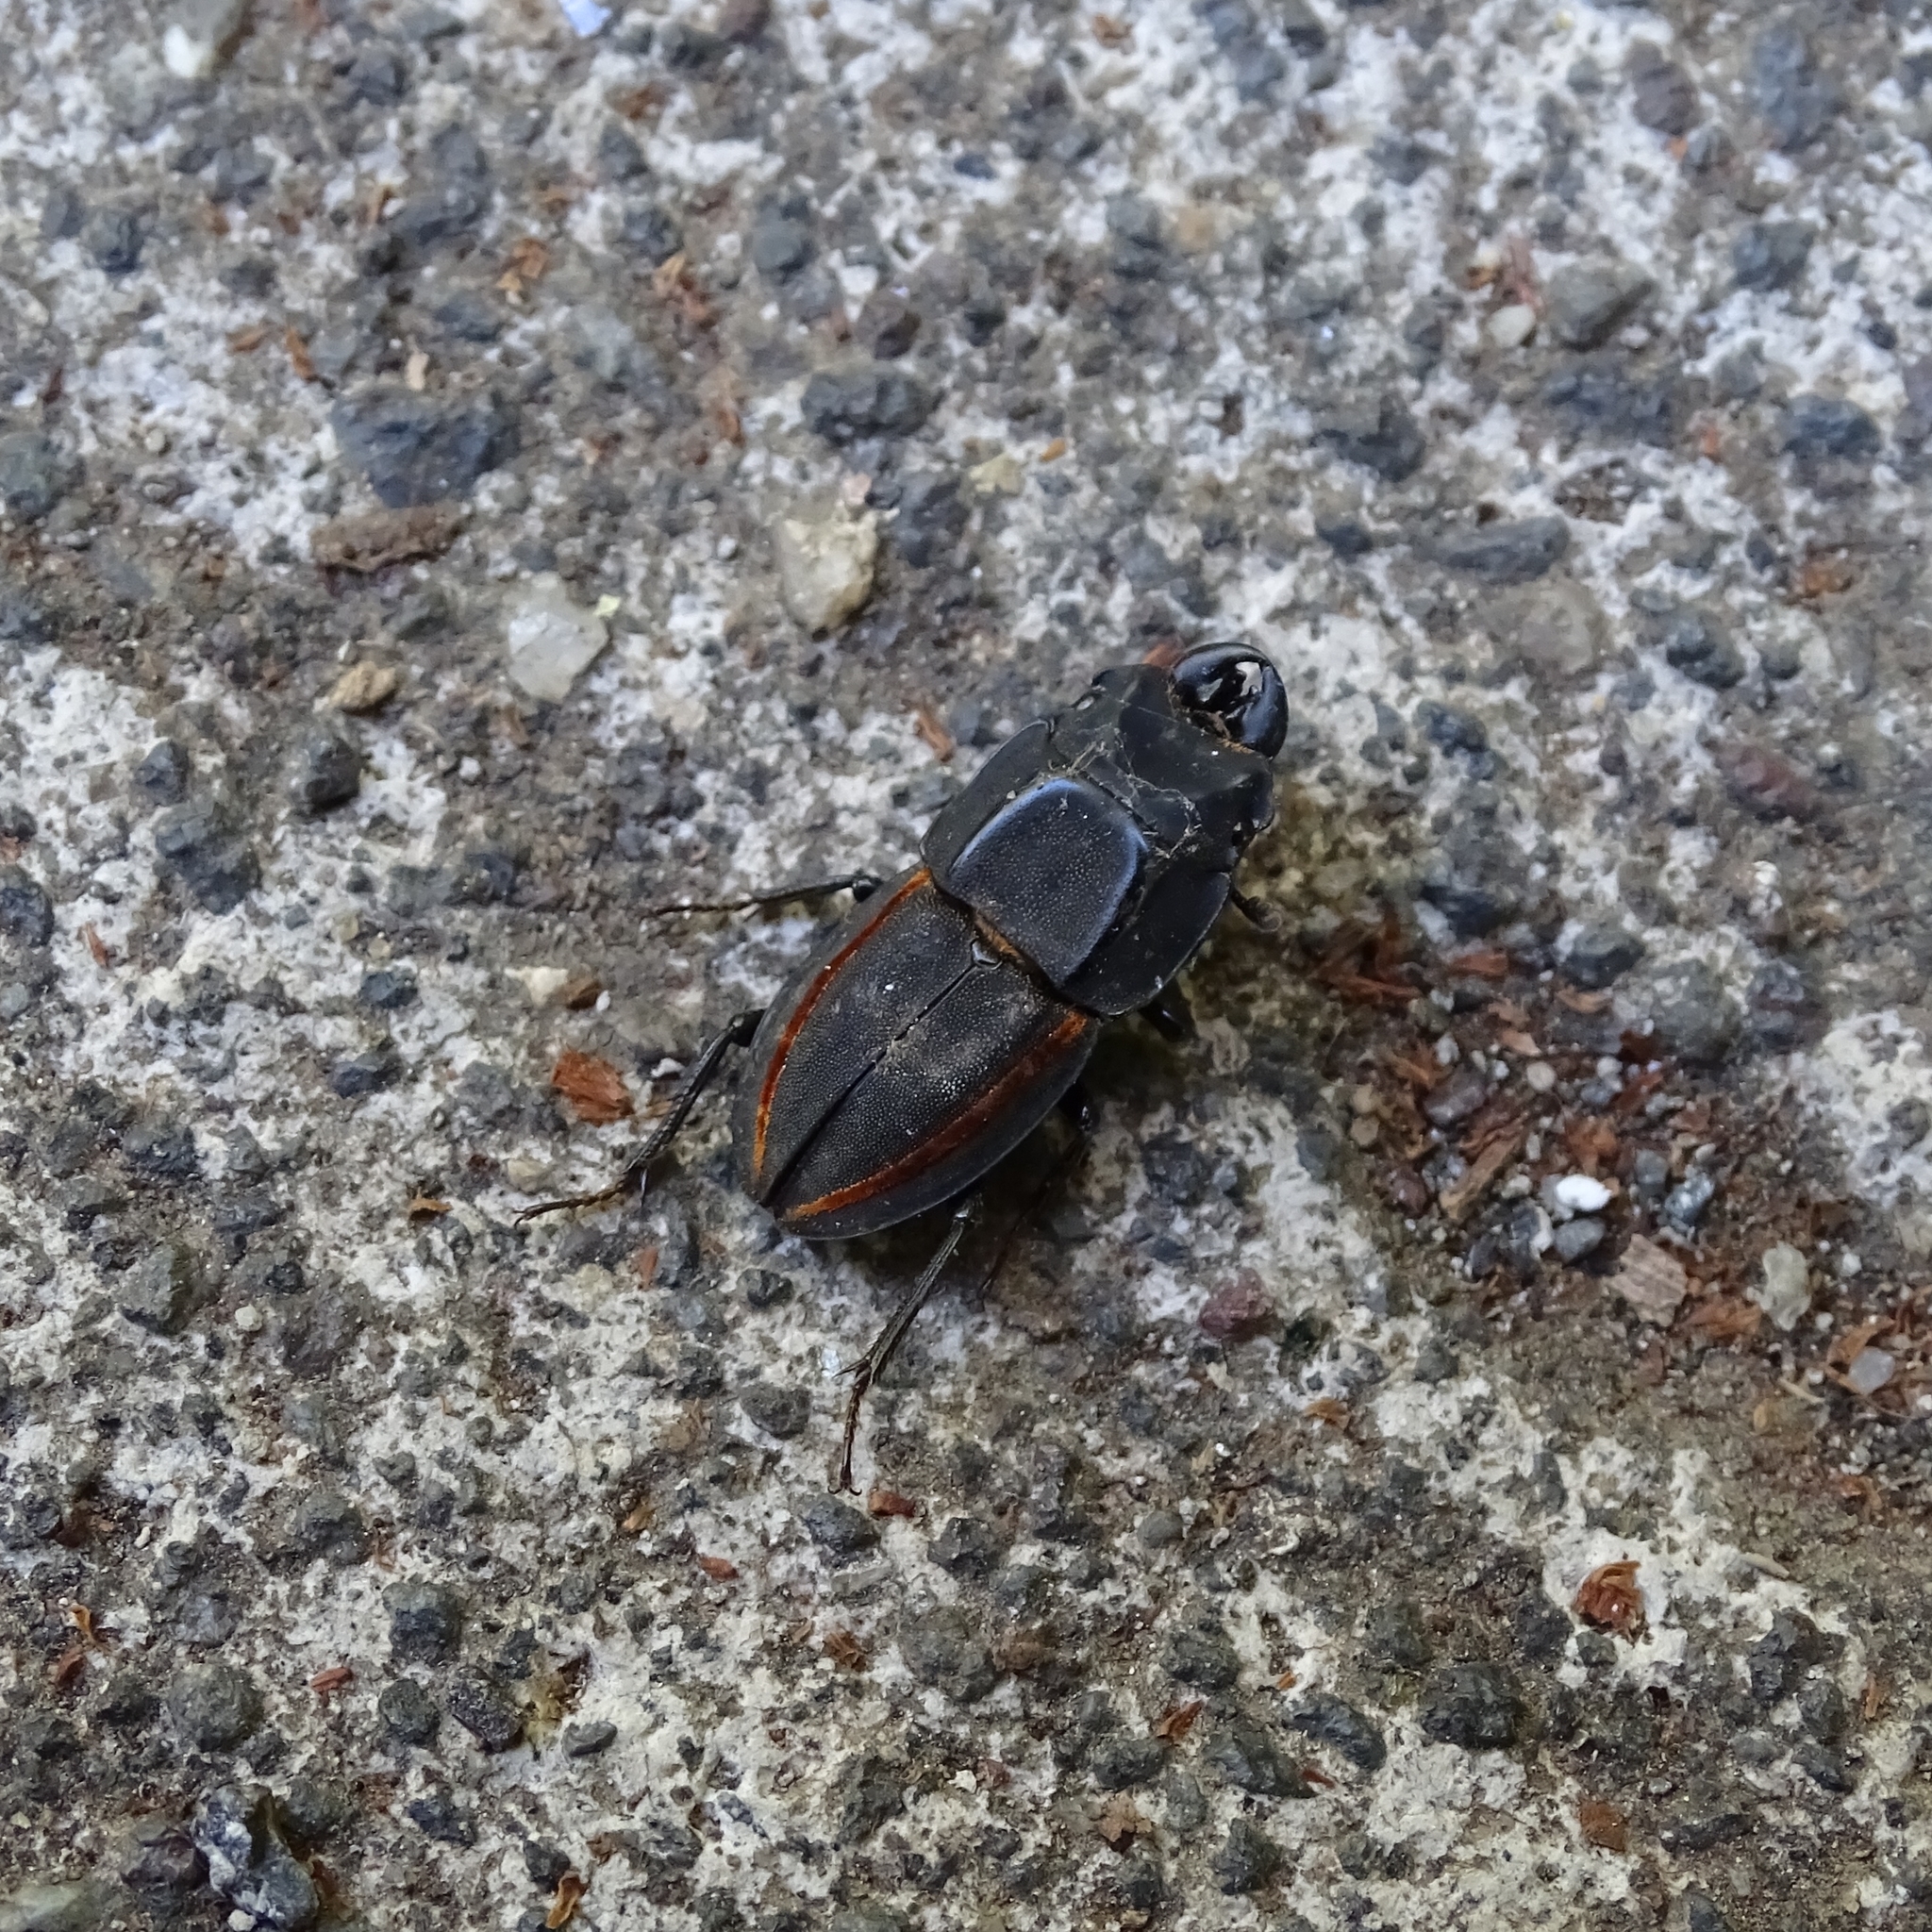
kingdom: Animalia
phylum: Arthropoda
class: Insecta
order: Coleoptera
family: Lucanidae
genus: Erichius
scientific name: Erichius vittatus
